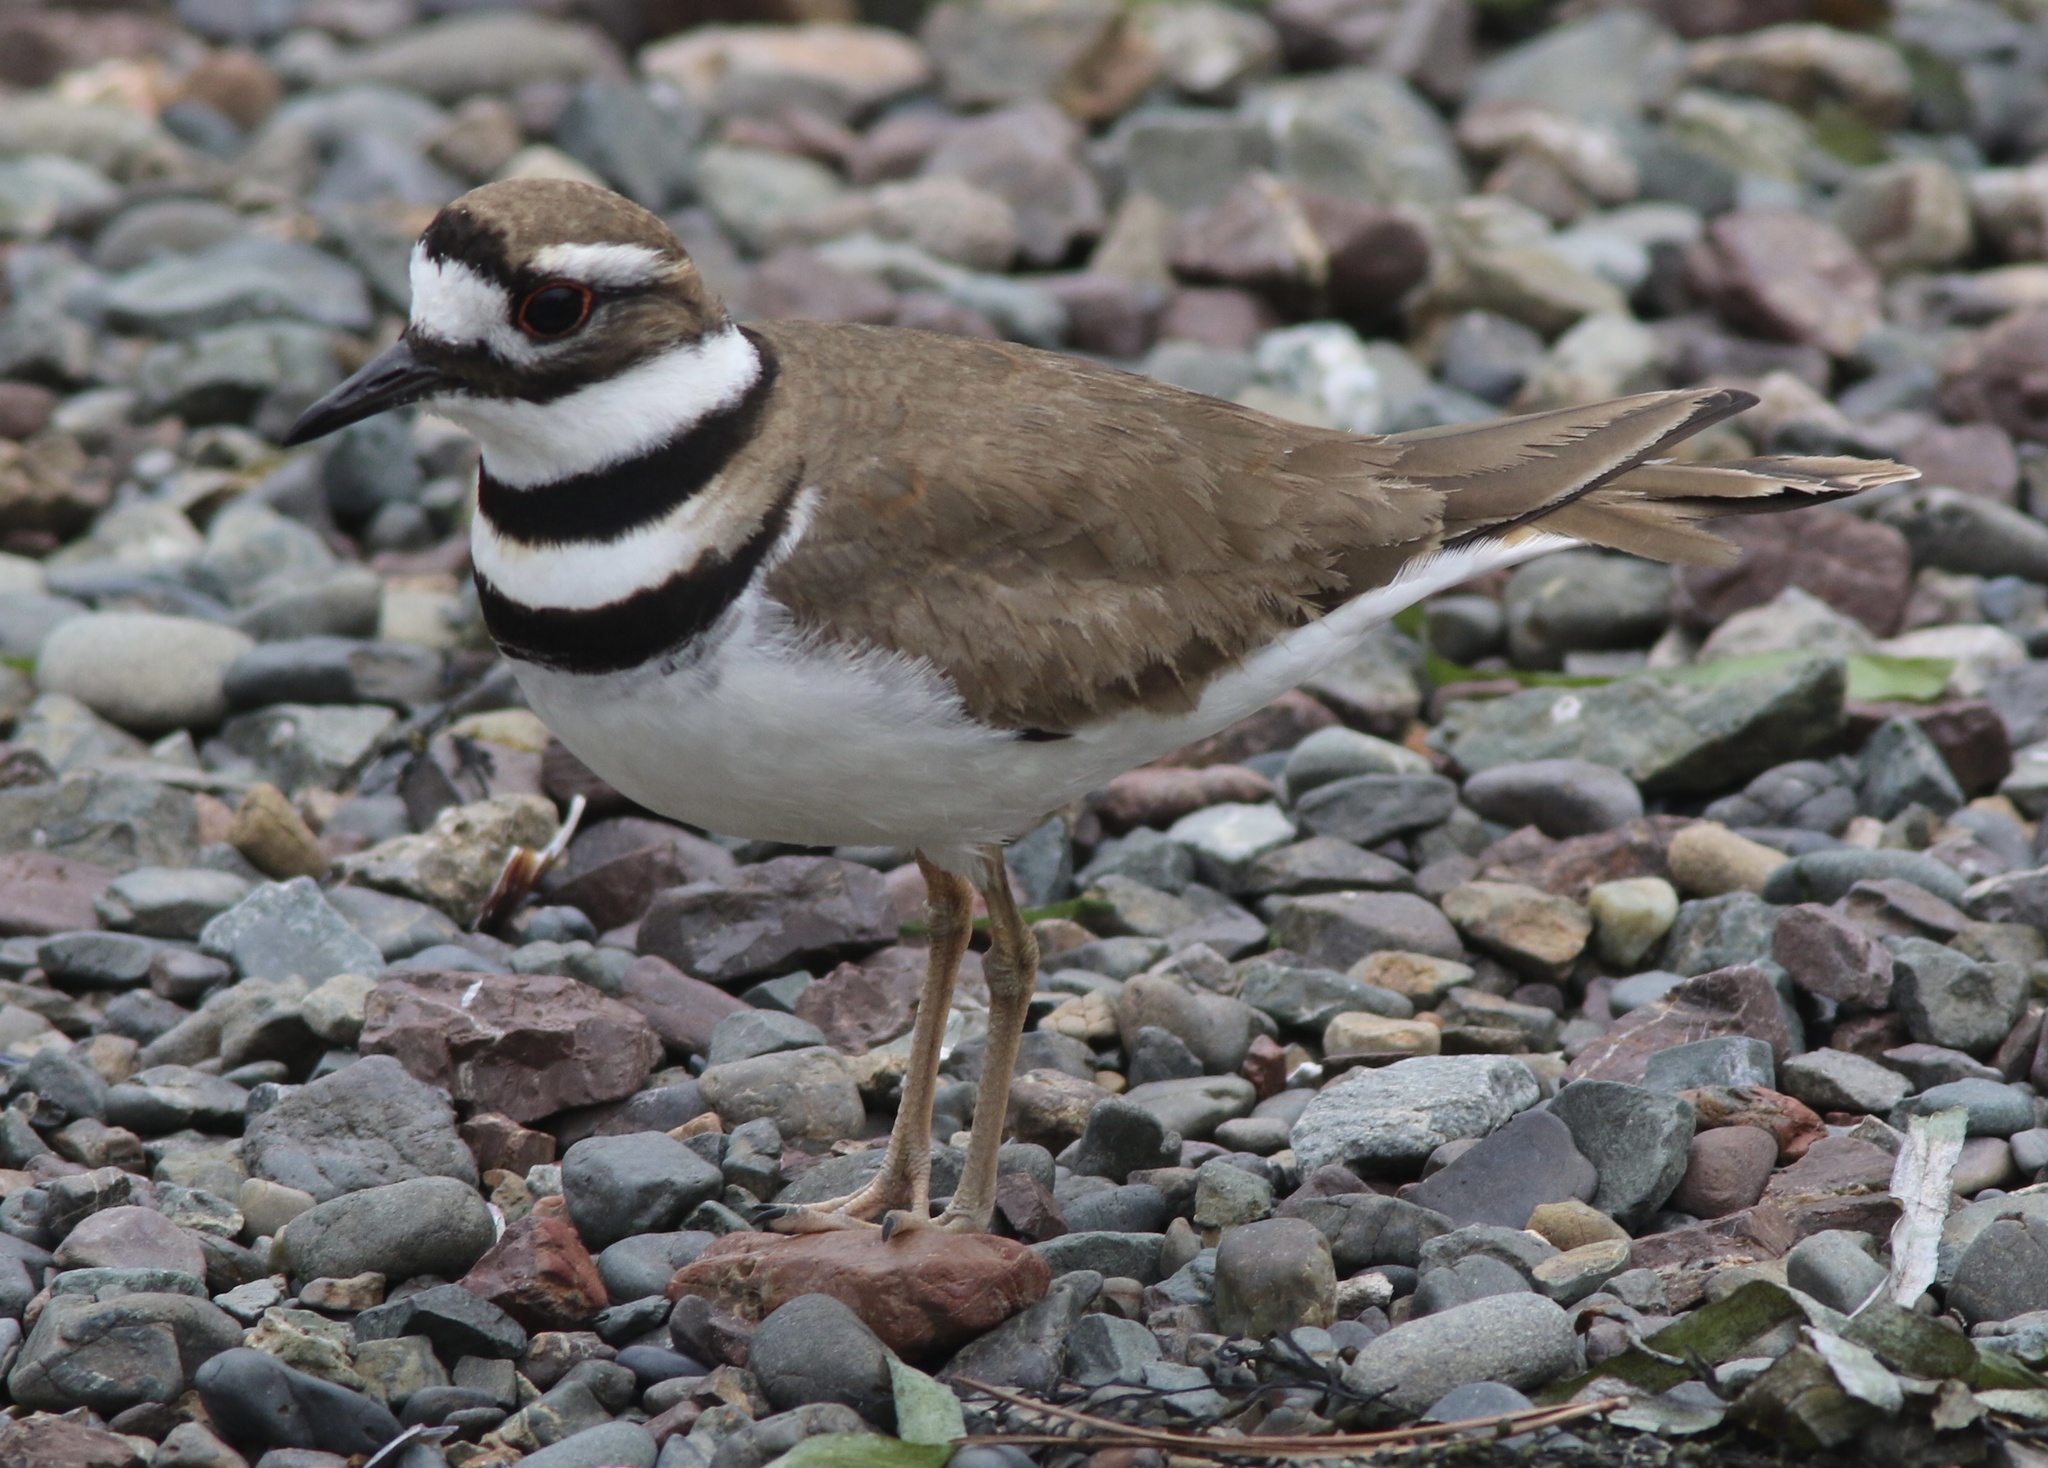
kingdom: Animalia
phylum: Chordata
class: Aves
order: Charadriiformes
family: Charadriidae
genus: Charadrius
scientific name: Charadrius vociferus
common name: Killdeer
